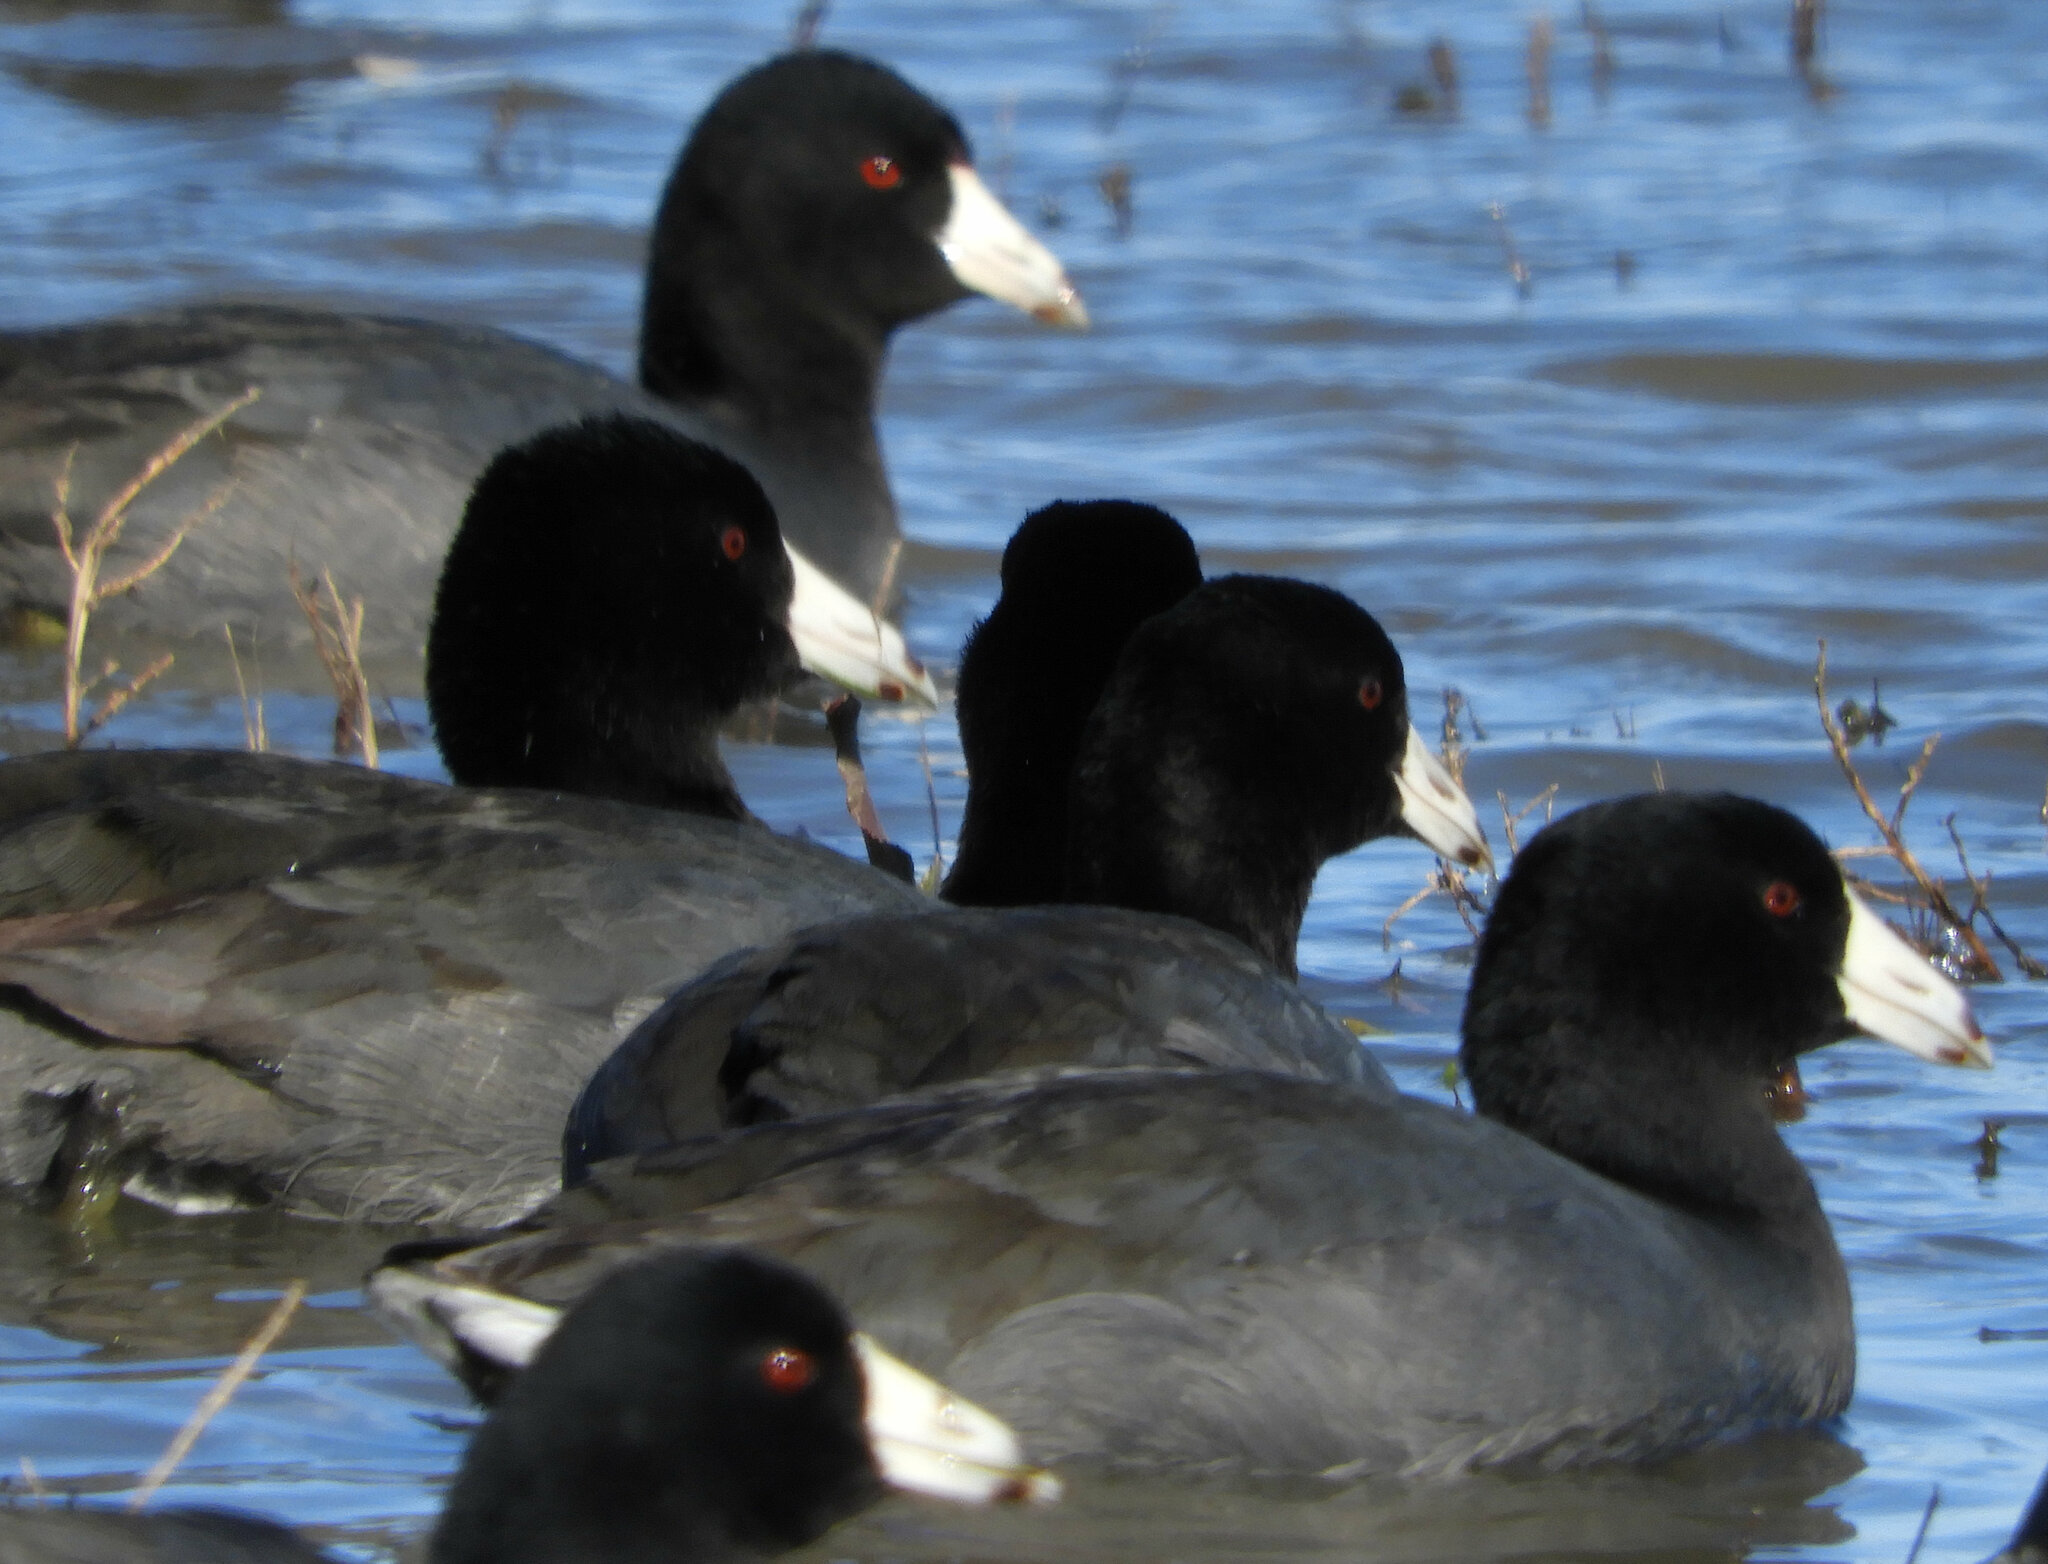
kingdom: Animalia
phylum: Chordata
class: Aves
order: Gruiformes
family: Rallidae
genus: Fulica
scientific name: Fulica americana
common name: American coot
